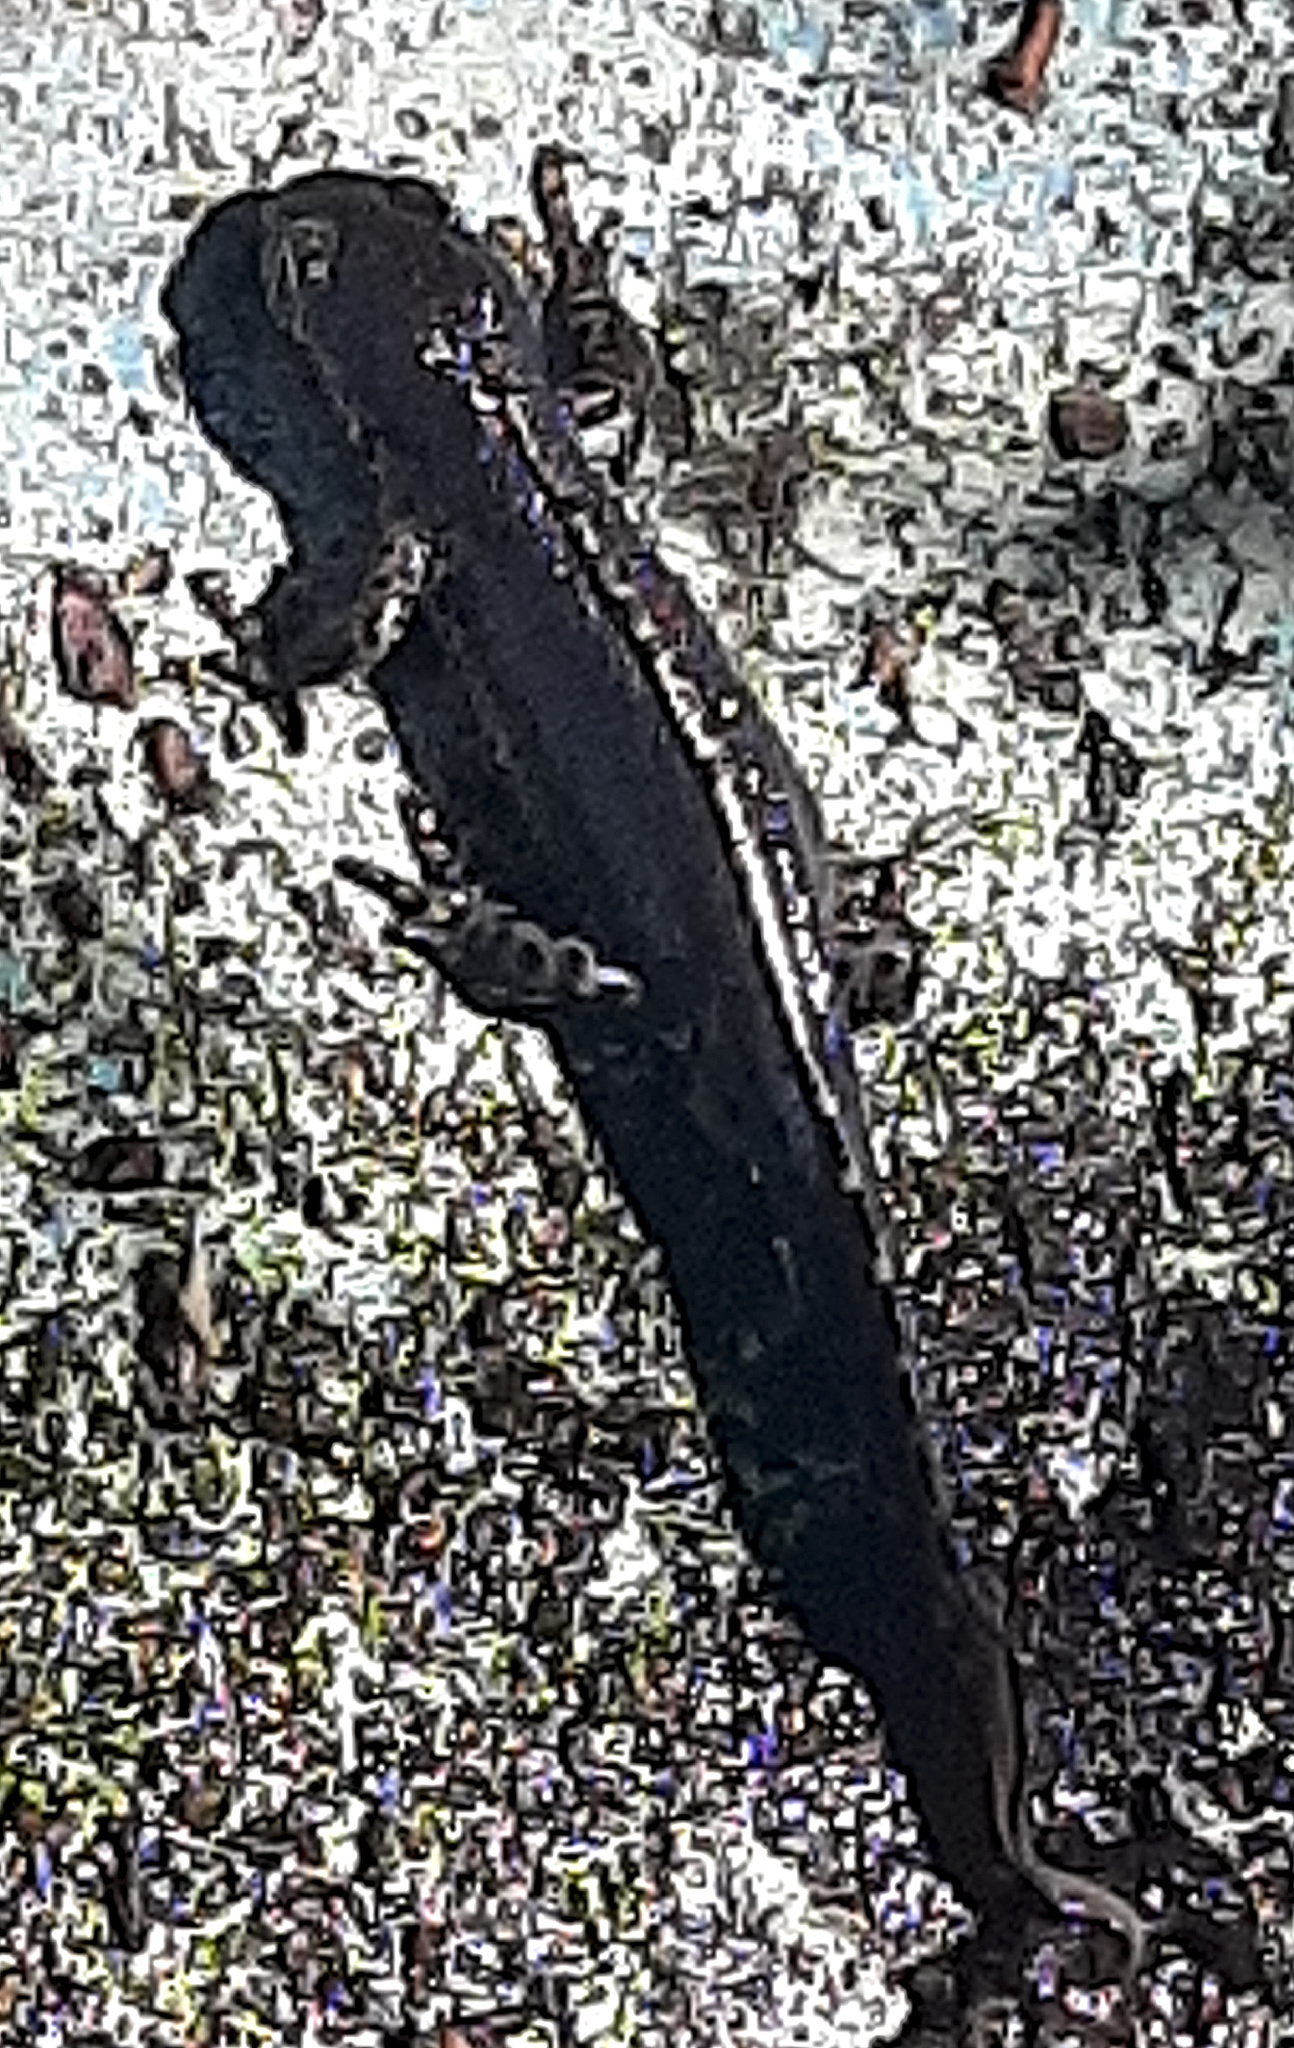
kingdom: Animalia
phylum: Chordata
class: Amphibia
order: Caudata
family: Salamandridae
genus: Ichthyosaura
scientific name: Ichthyosaura alpestris
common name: Alpine newt
